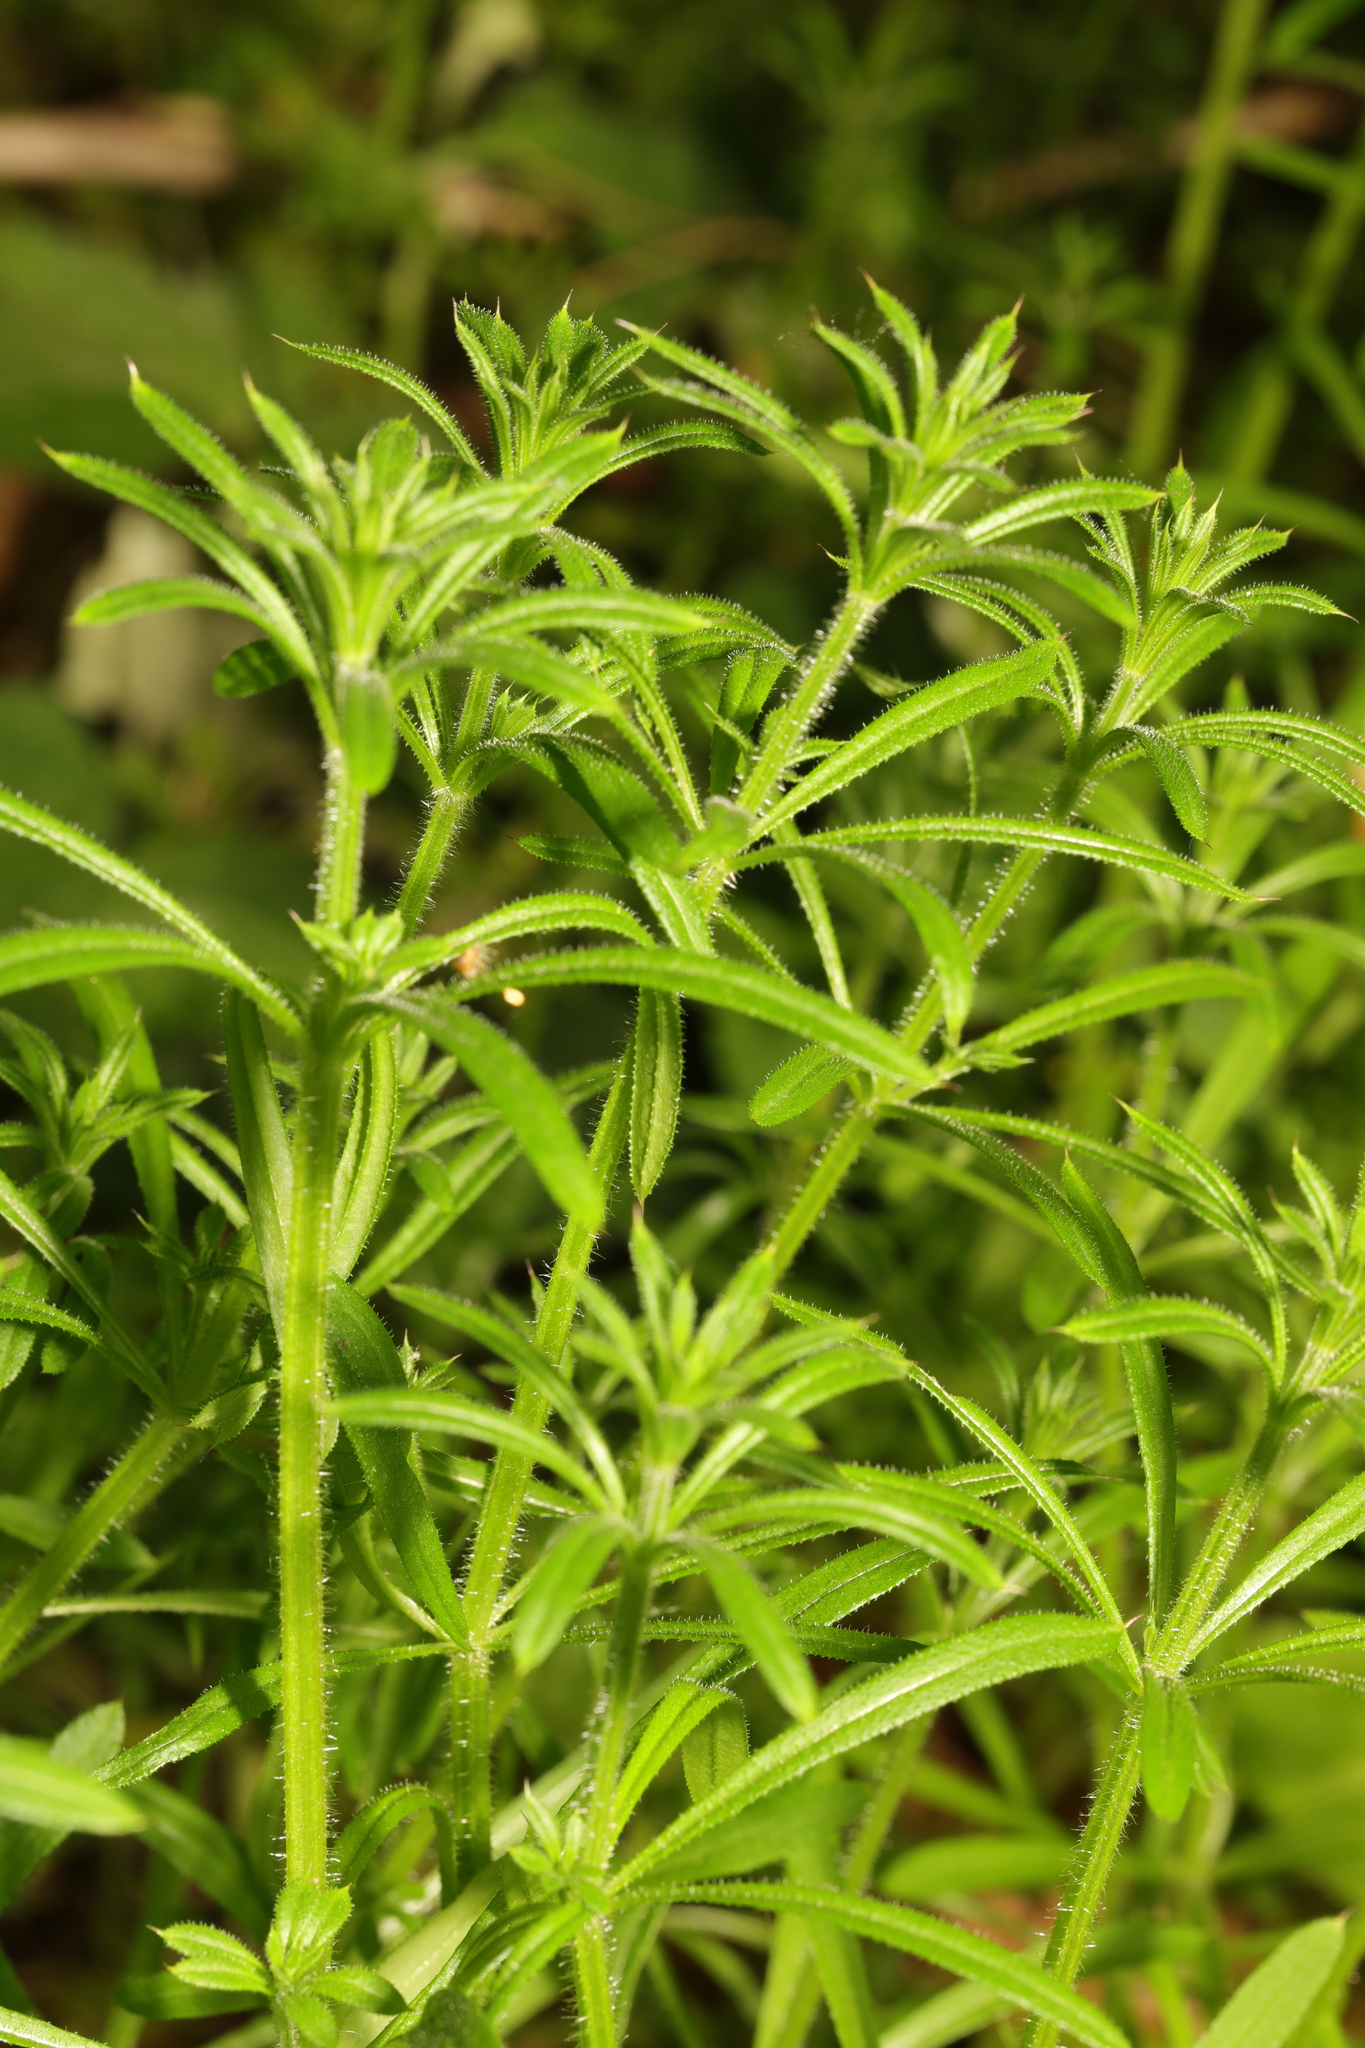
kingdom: Plantae
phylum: Tracheophyta
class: Magnoliopsida
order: Gentianales
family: Rubiaceae
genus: Galium
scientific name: Galium aparine
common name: Cleavers
